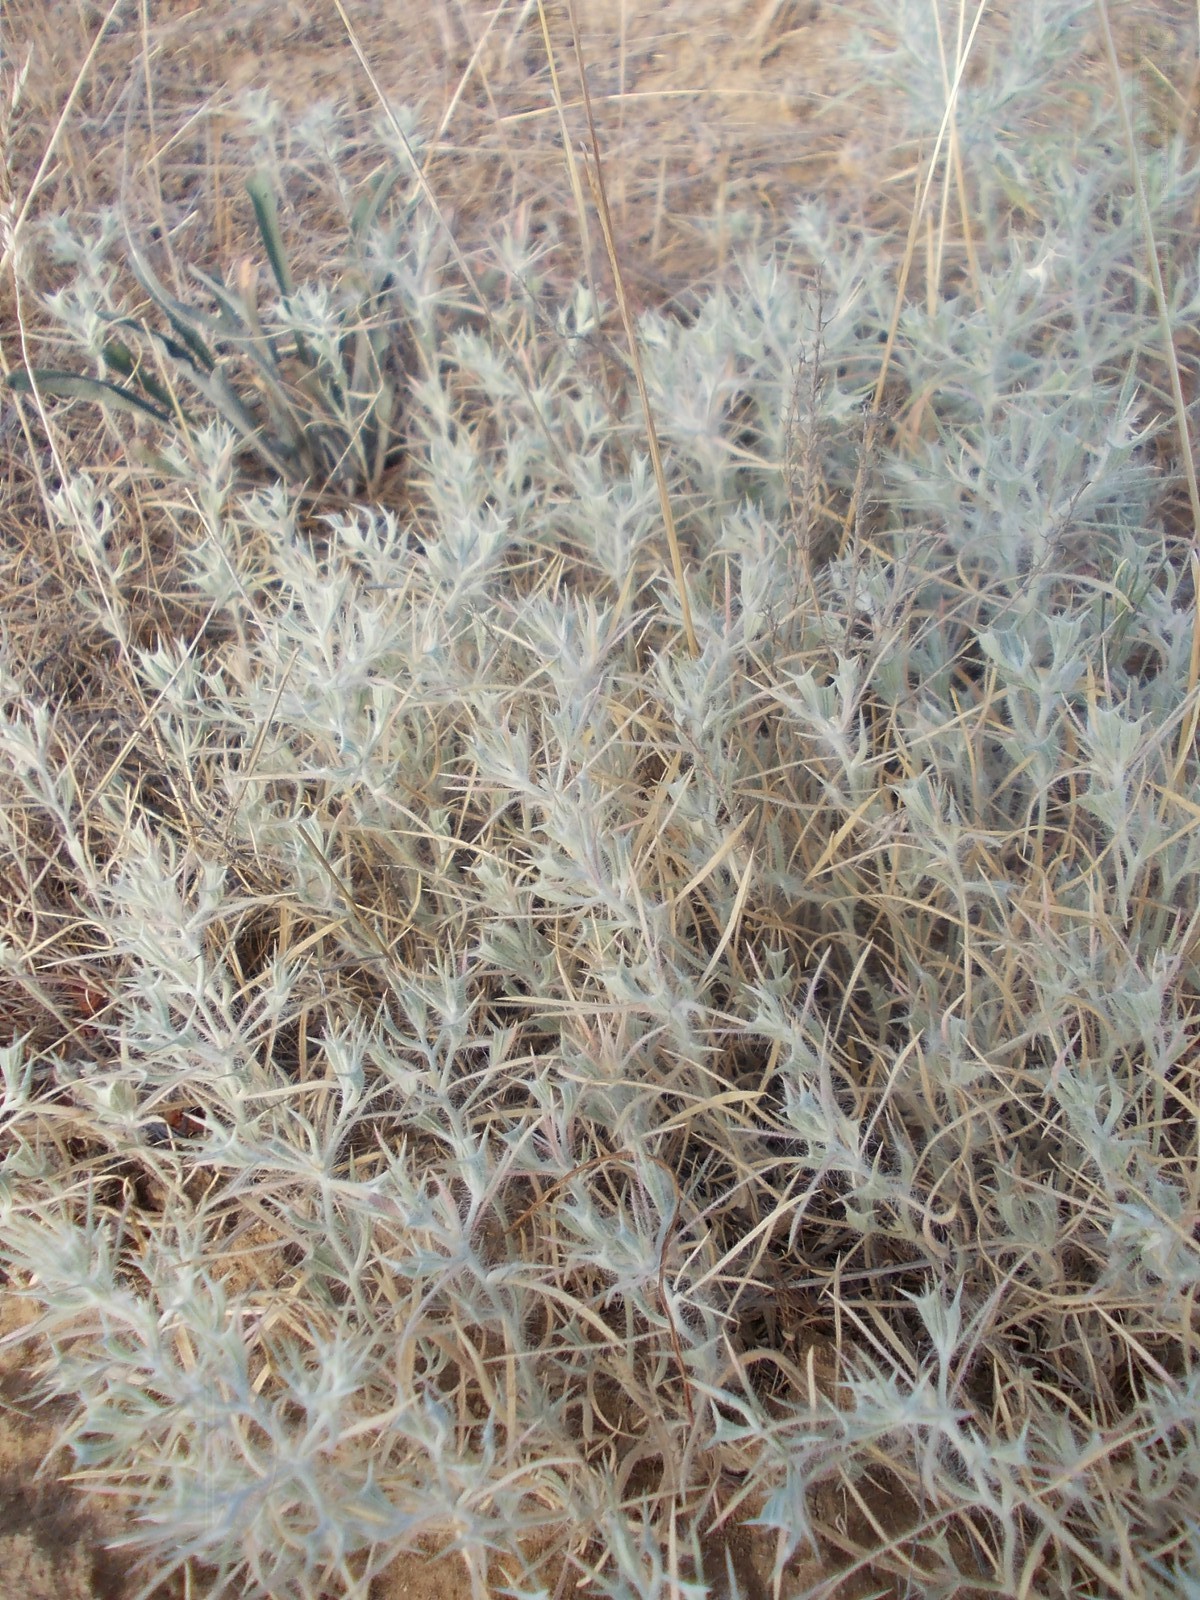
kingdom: Plantae
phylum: Tracheophyta
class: Magnoliopsida
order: Caryophyllales
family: Amaranthaceae
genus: Ceratocarpus
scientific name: Ceratocarpus arenarius
